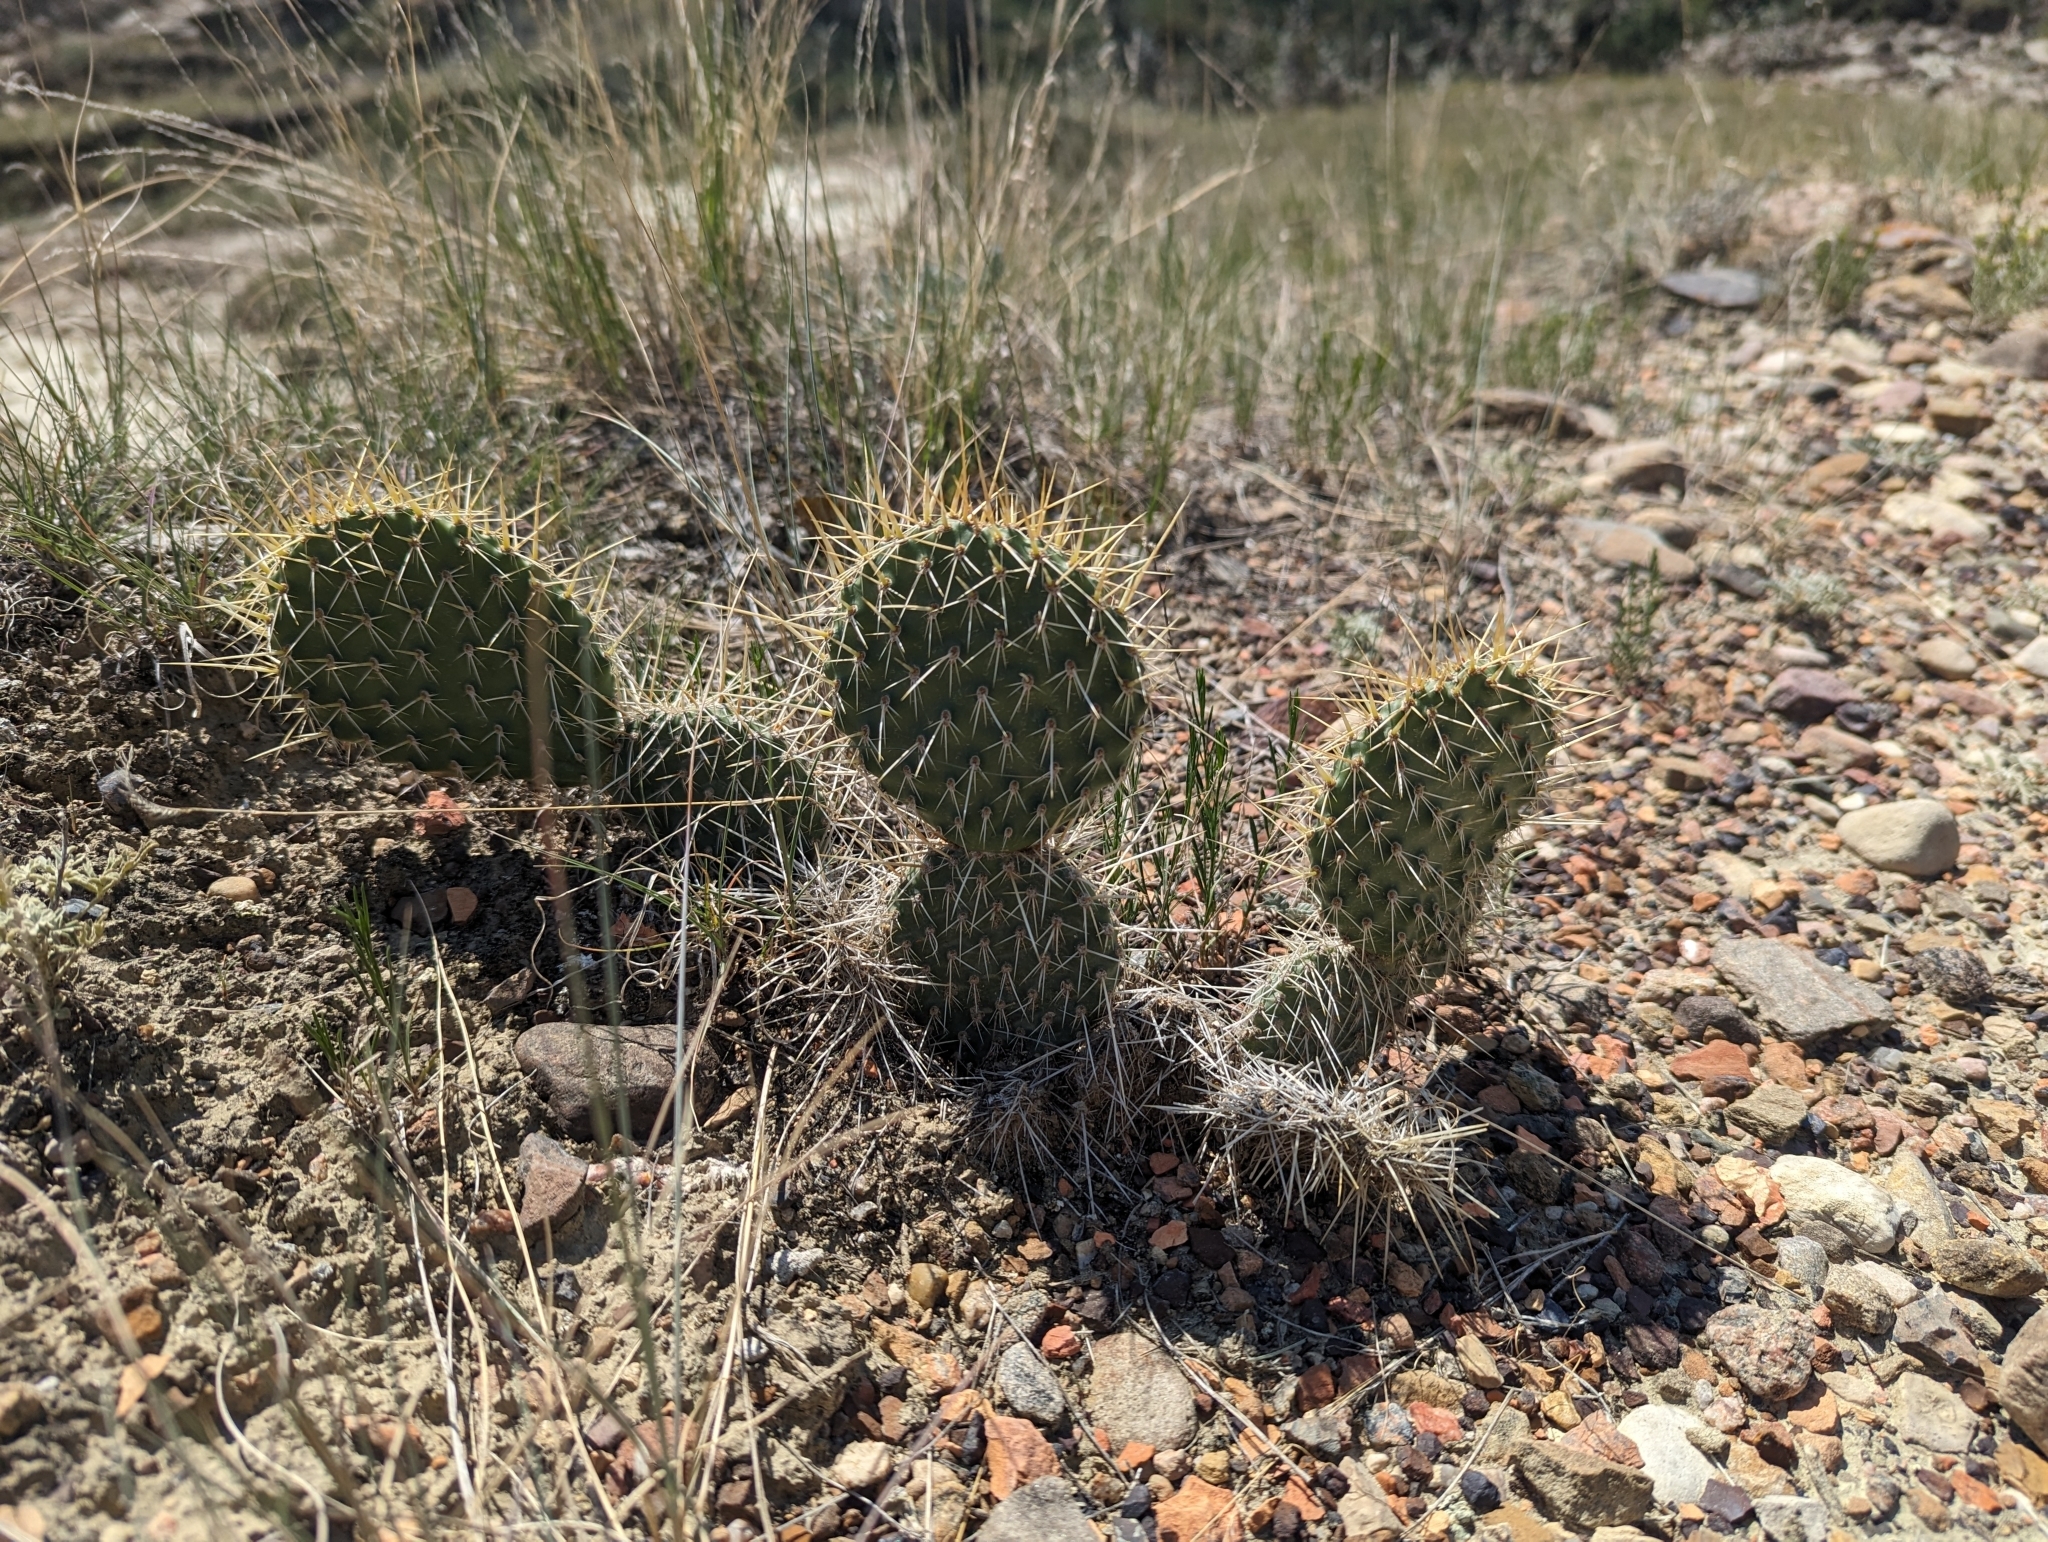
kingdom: Plantae
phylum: Tracheophyta
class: Magnoliopsida
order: Caryophyllales
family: Cactaceae
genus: Opuntia
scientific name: Opuntia polyacantha
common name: Plains prickly-pear
